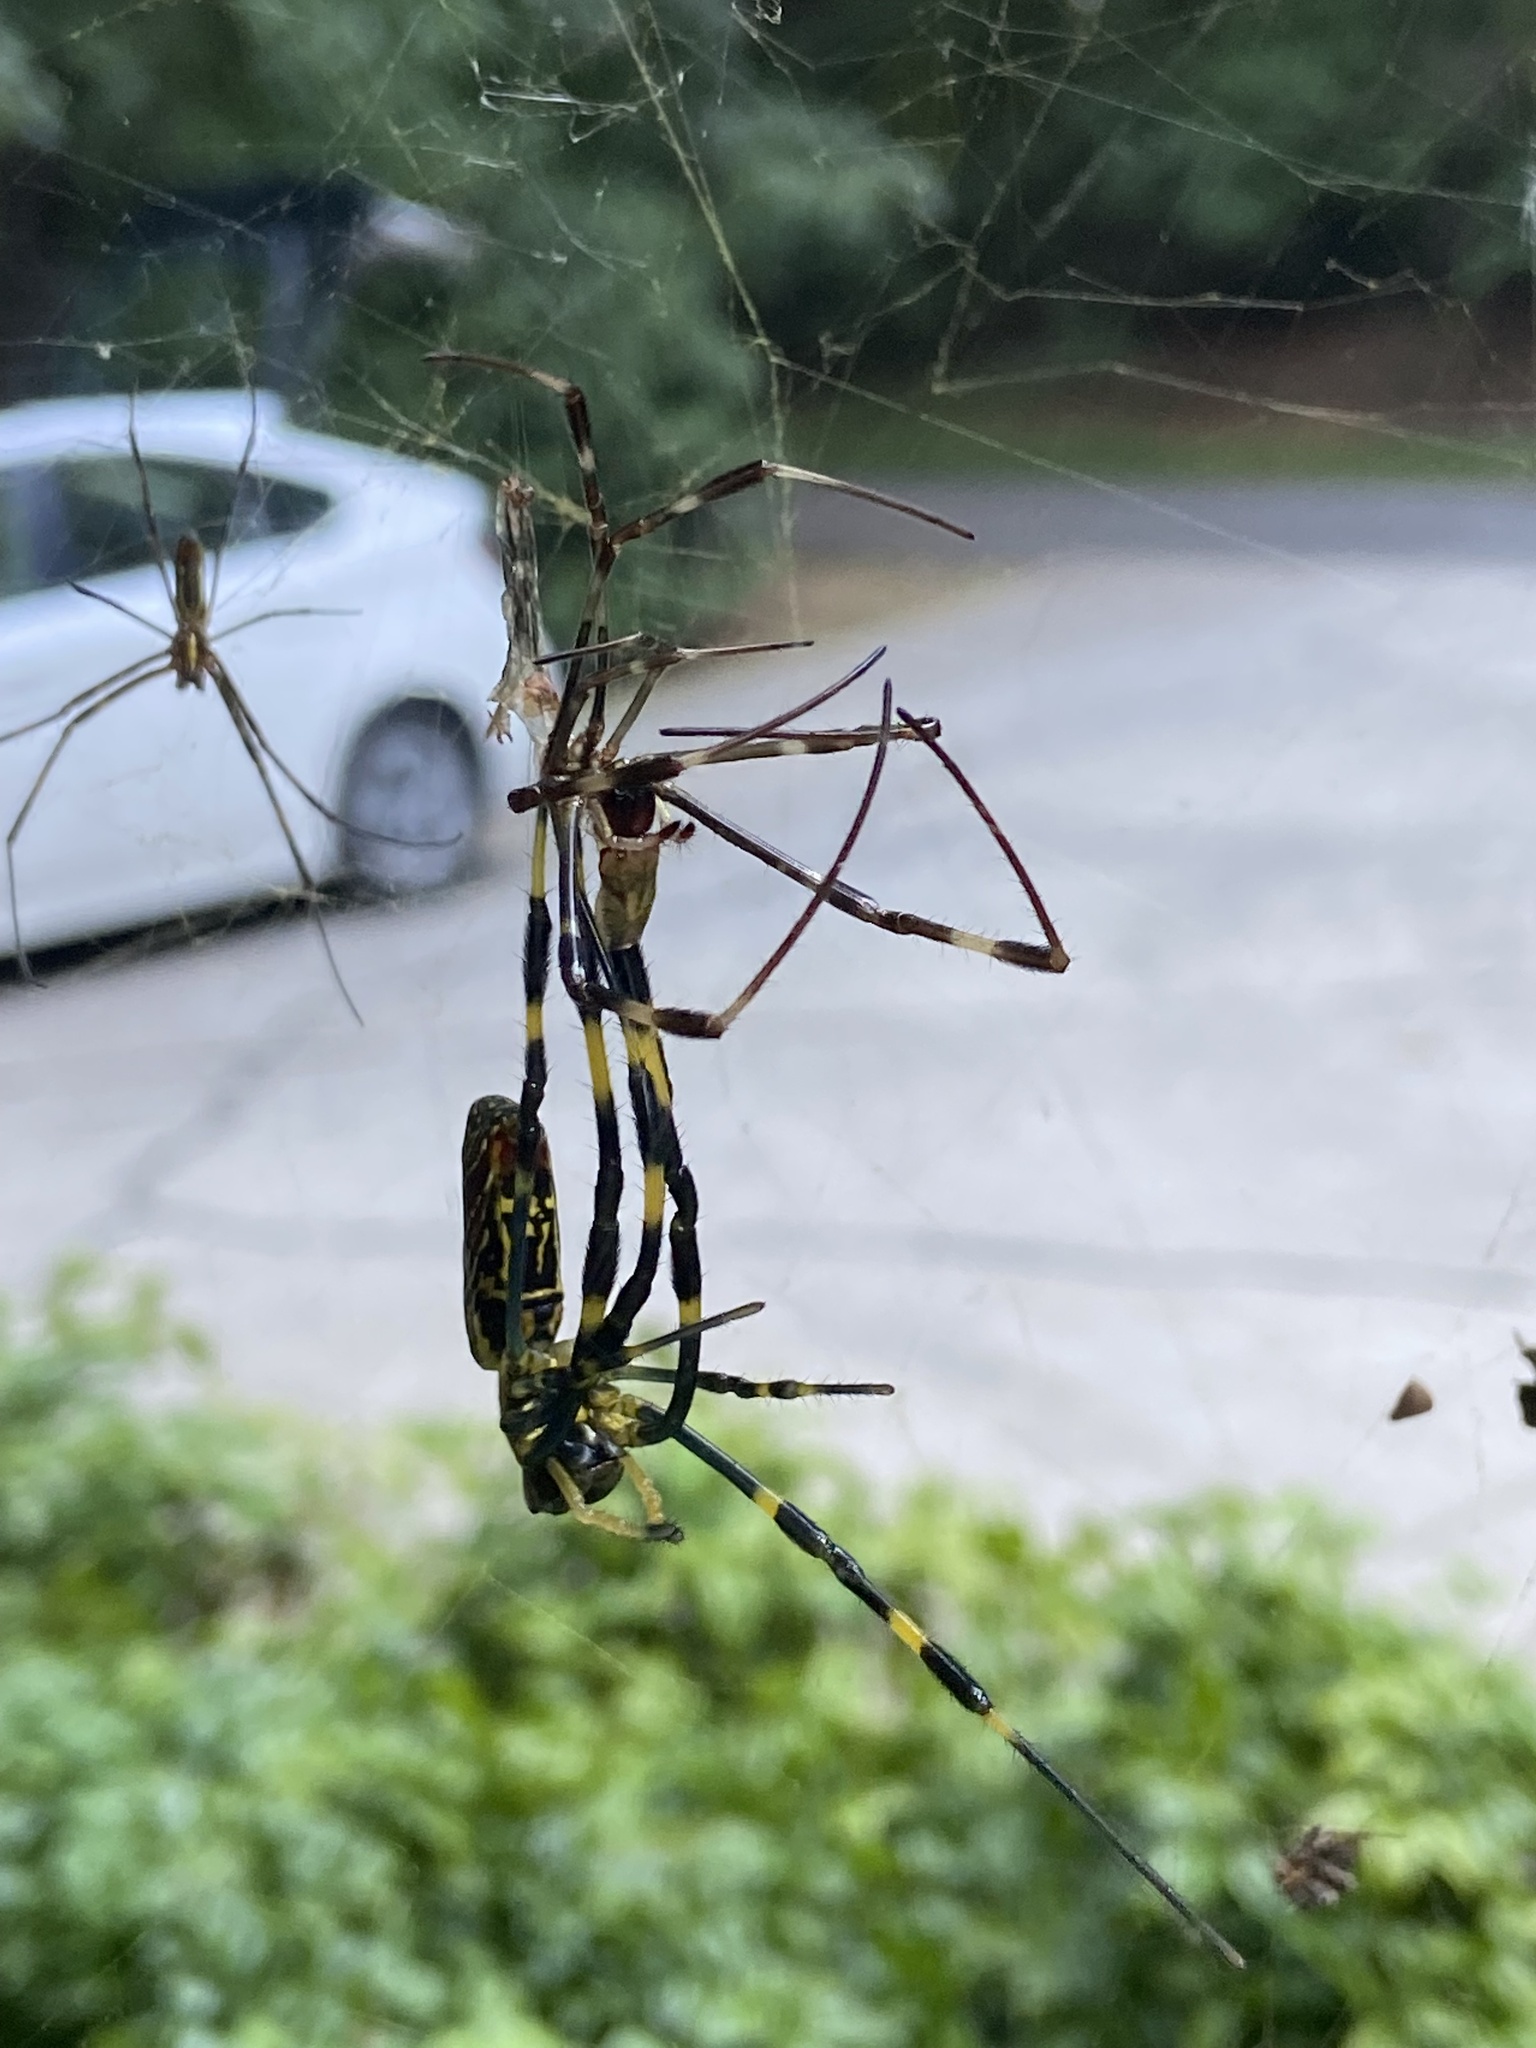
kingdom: Animalia
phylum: Arthropoda
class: Arachnida
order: Araneae
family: Araneidae
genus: Trichonephila
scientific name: Trichonephila clavata
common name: Jorō spider
